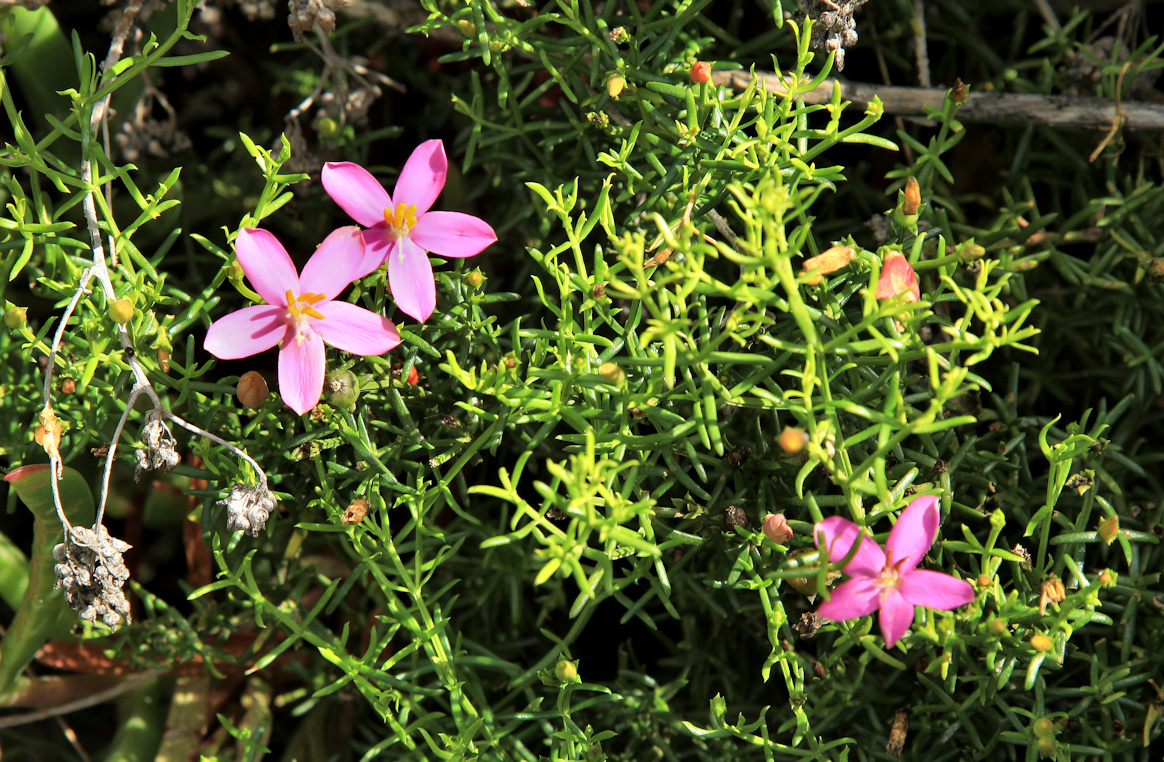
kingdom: Plantae
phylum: Tracheophyta
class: Magnoliopsida
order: Gentianales
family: Gentianaceae
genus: Chironia
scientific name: Chironia baccifera
